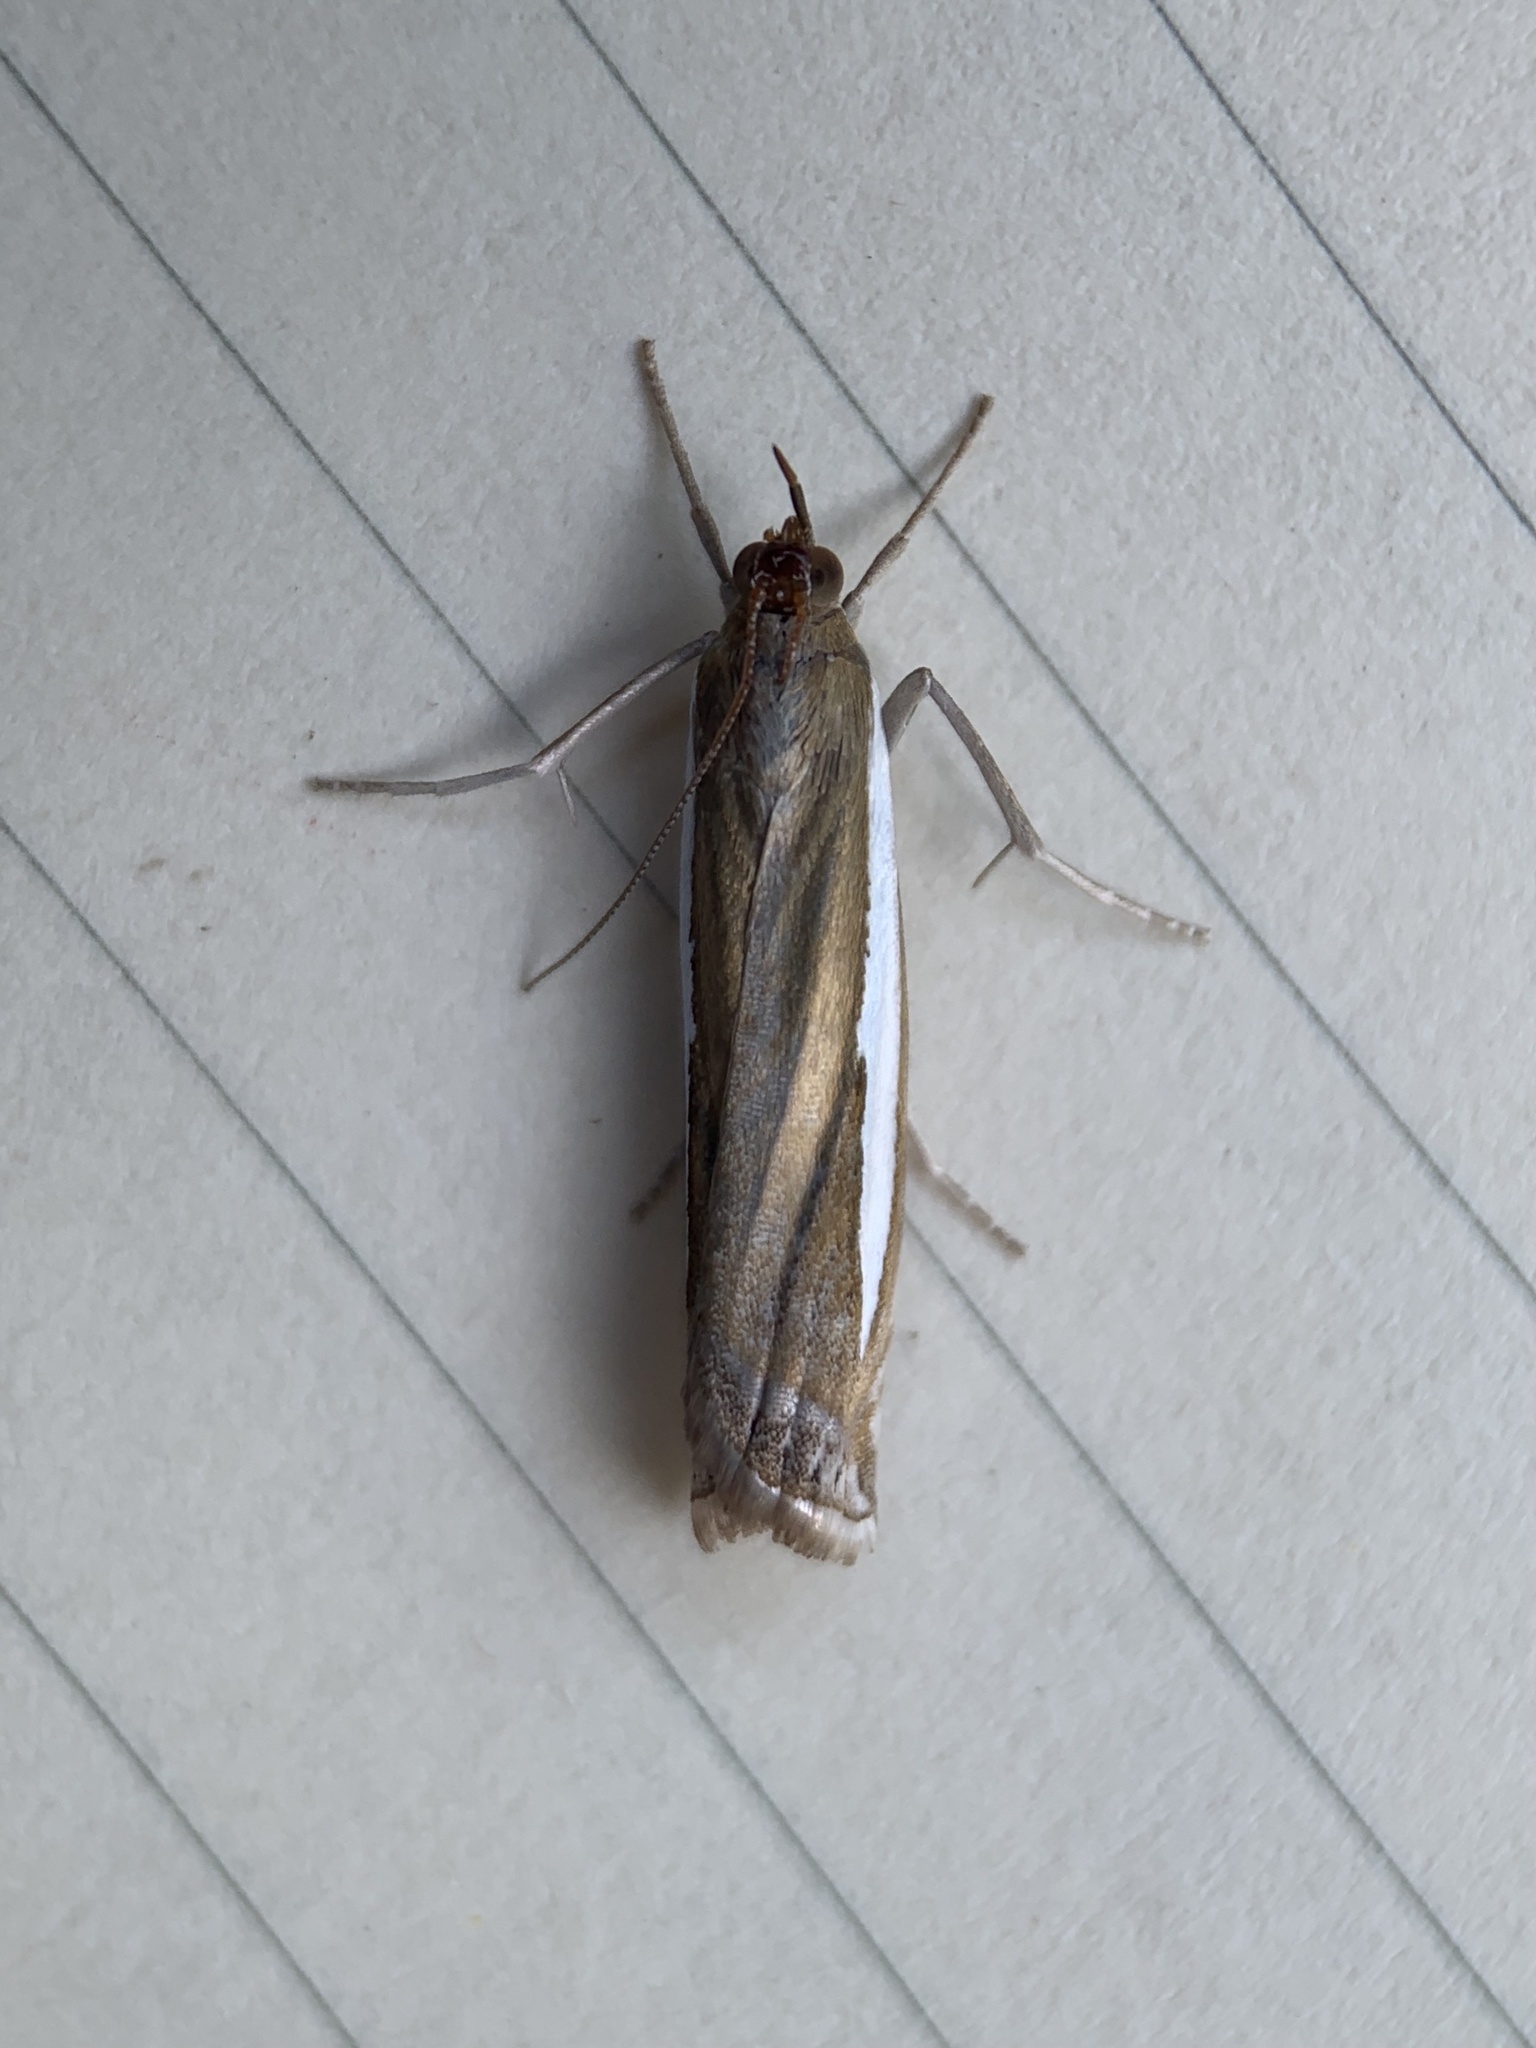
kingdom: Animalia
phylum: Arthropoda
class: Insecta
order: Lepidoptera
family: Crambidae
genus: Crambus
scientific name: Crambus praefectellus
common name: Common grass-veneer
